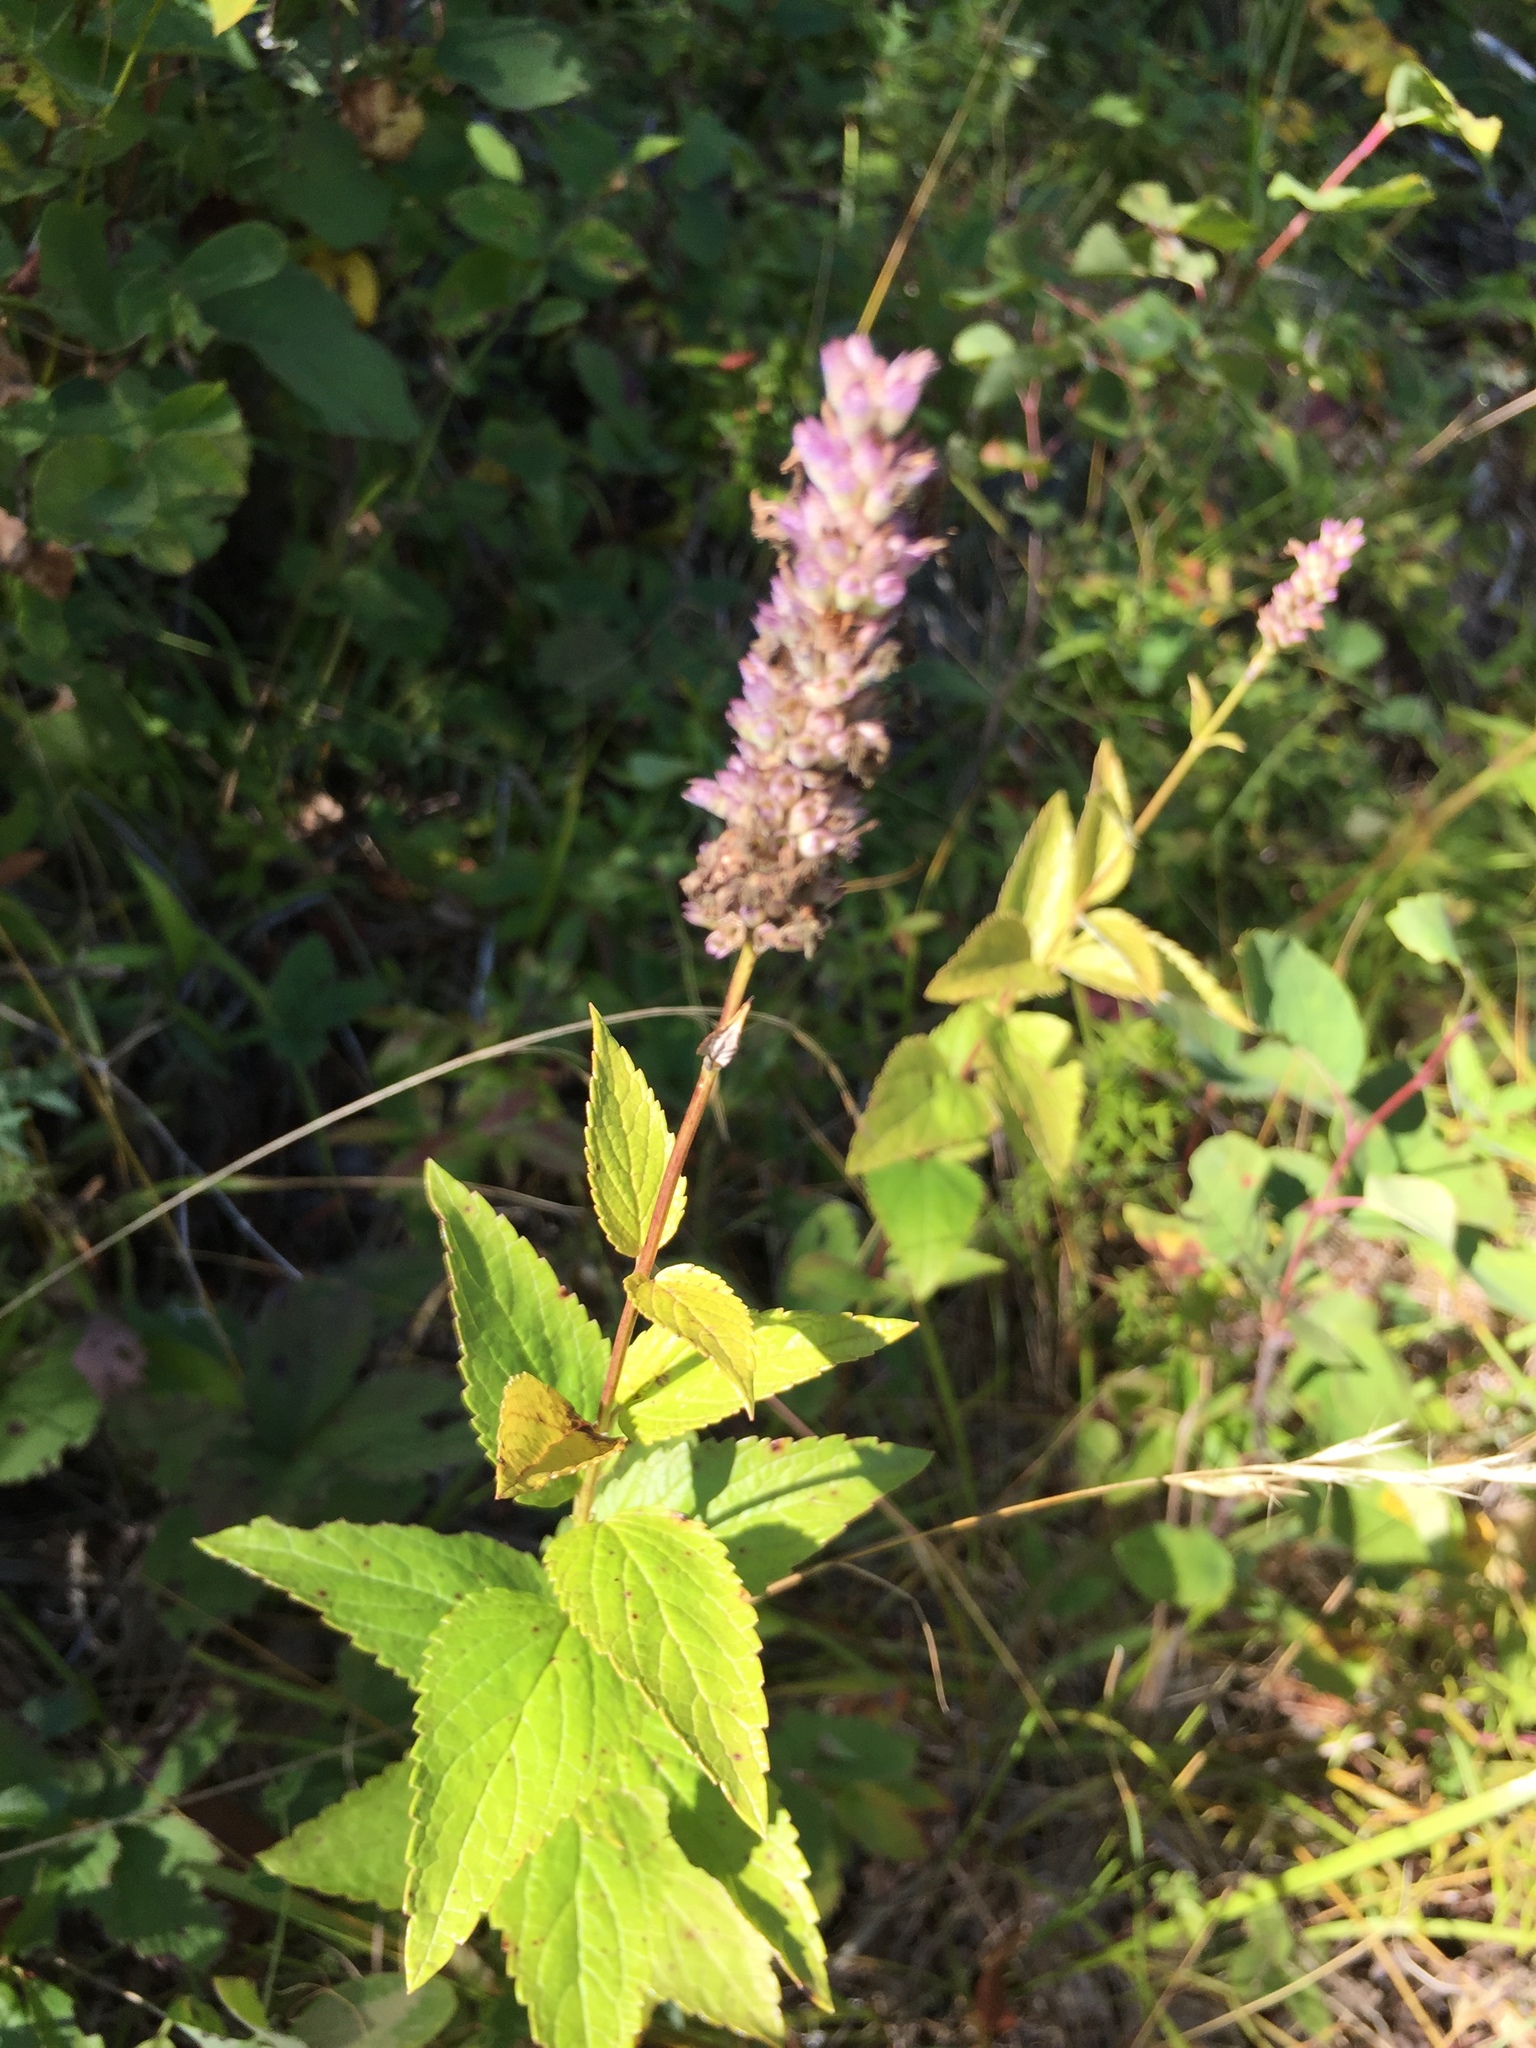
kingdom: Plantae
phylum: Tracheophyta
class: Magnoliopsida
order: Lamiales
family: Lamiaceae
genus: Agastache
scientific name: Agastache foeniculum
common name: Anise hyssop
